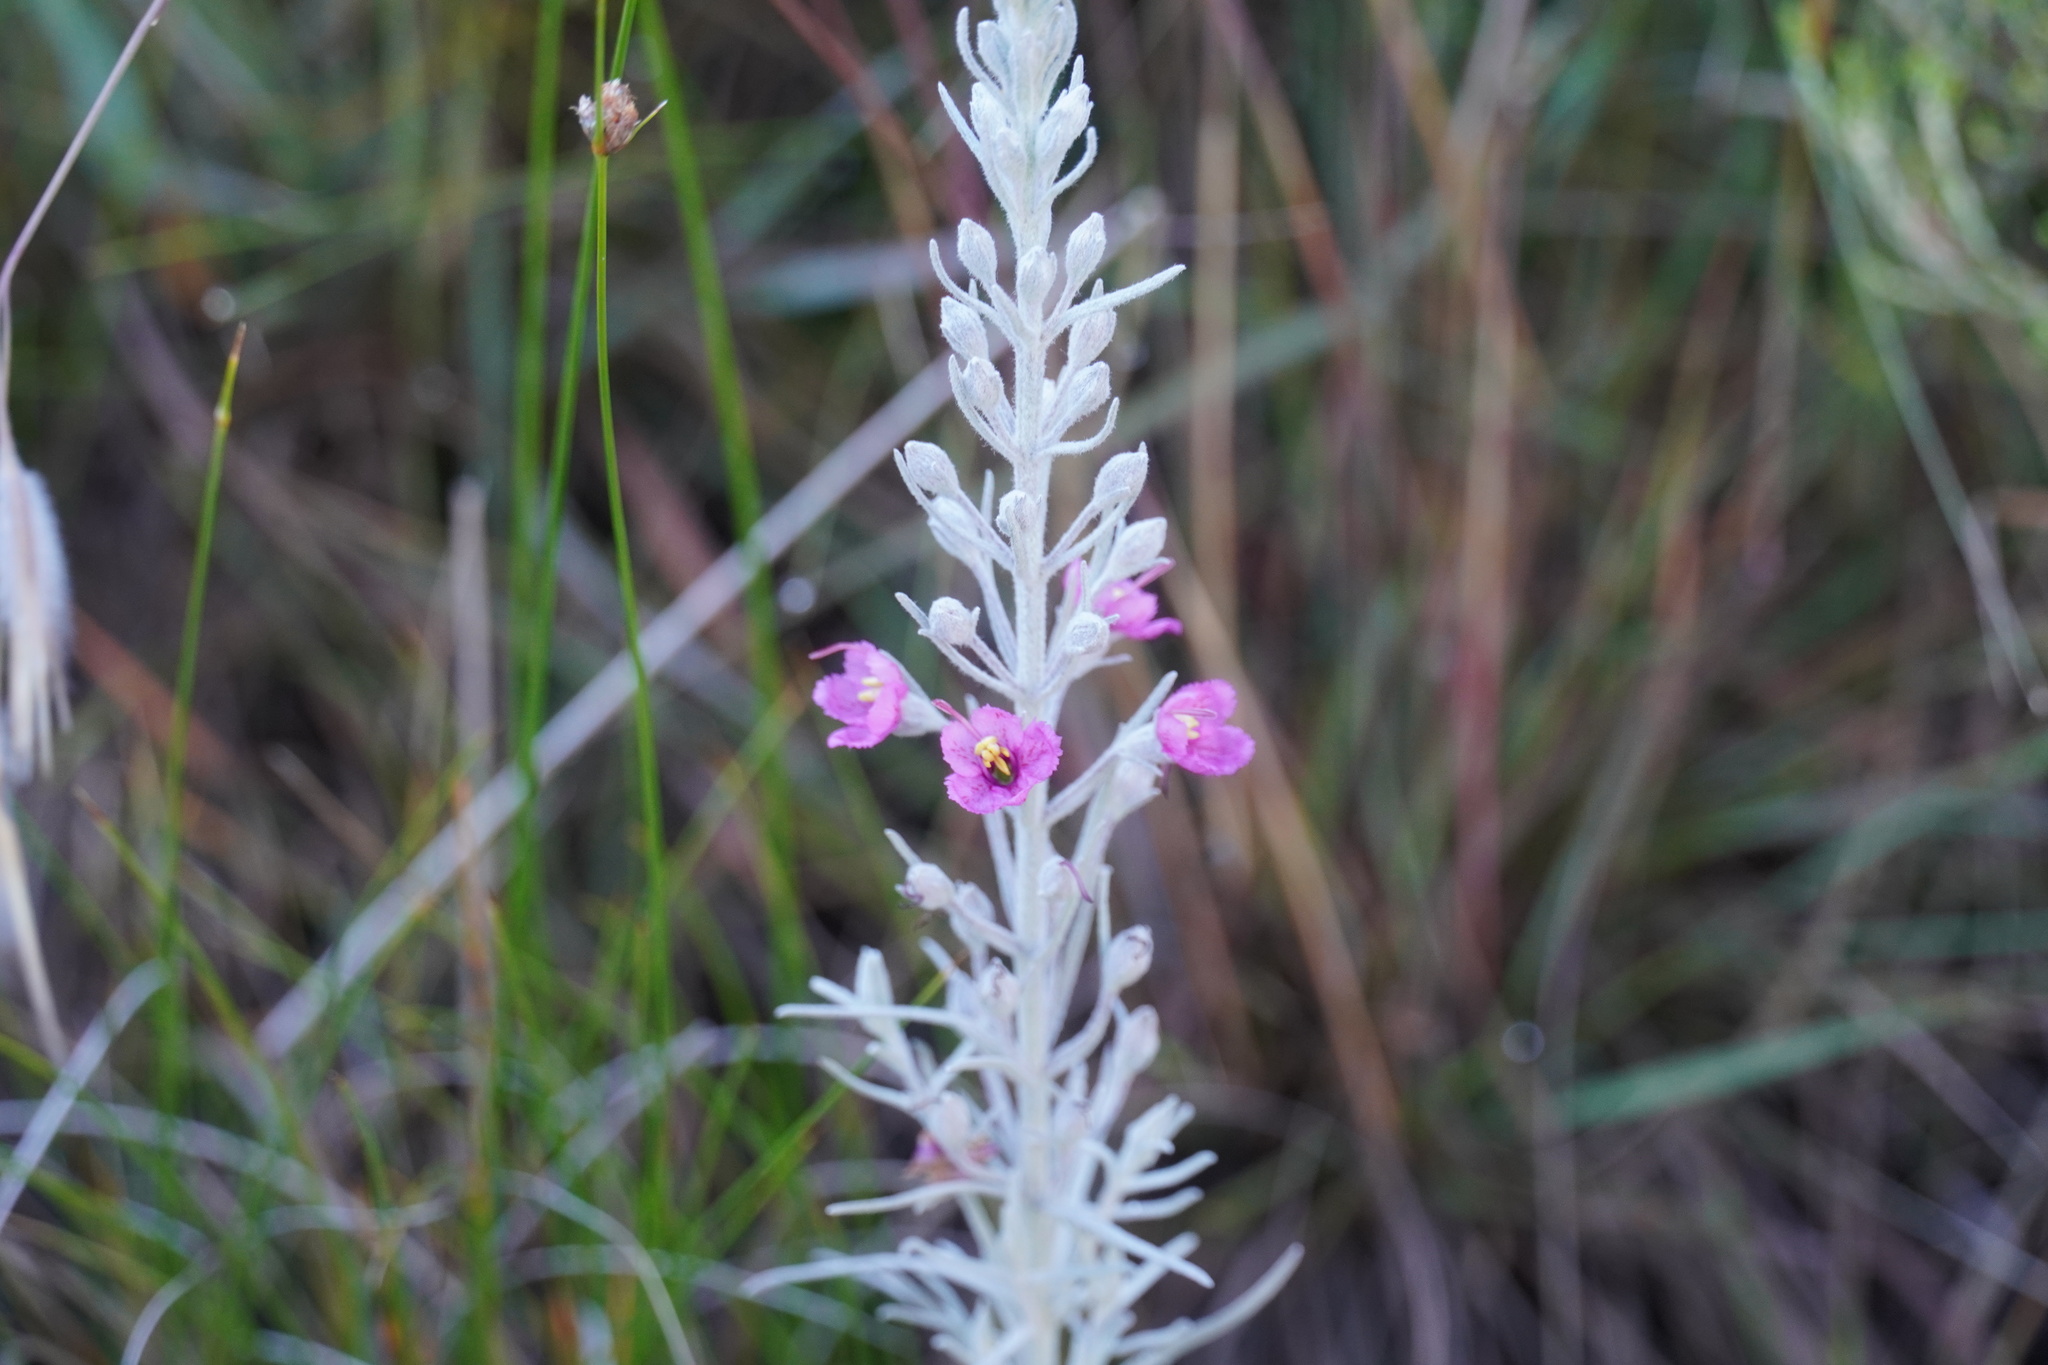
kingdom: Plantae
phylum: Tracheophyta
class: Magnoliopsida
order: Lamiales
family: Orobanchaceae
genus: Sopubia
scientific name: Sopubia cana
